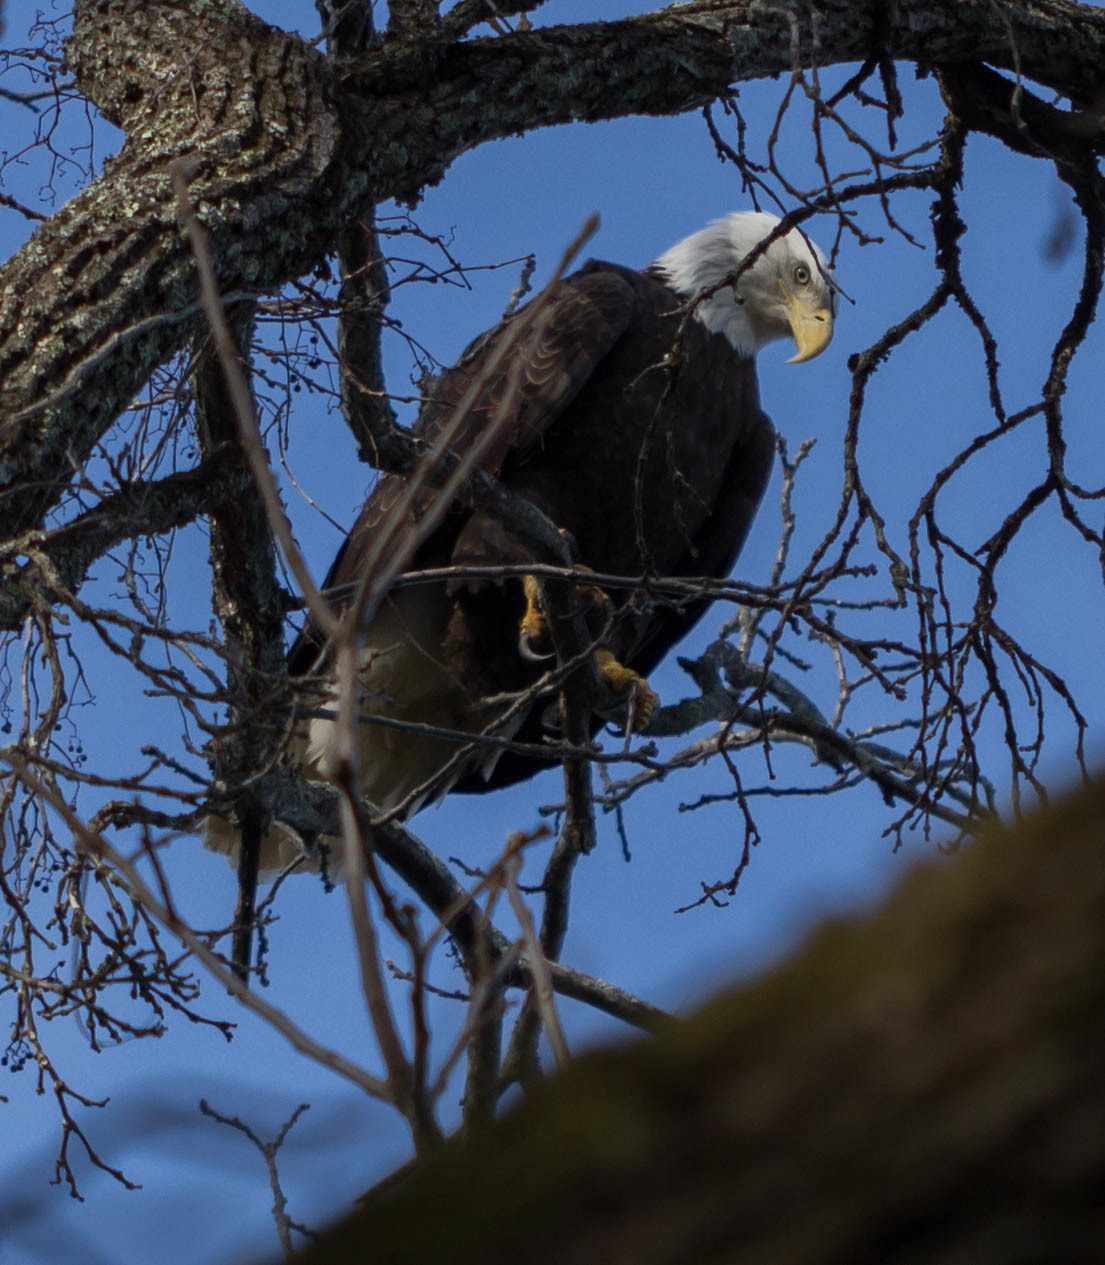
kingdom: Animalia
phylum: Chordata
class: Aves
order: Accipitriformes
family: Accipitridae
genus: Haliaeetus
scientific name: Haliaeetus leucocephalus
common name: Bald eagle
